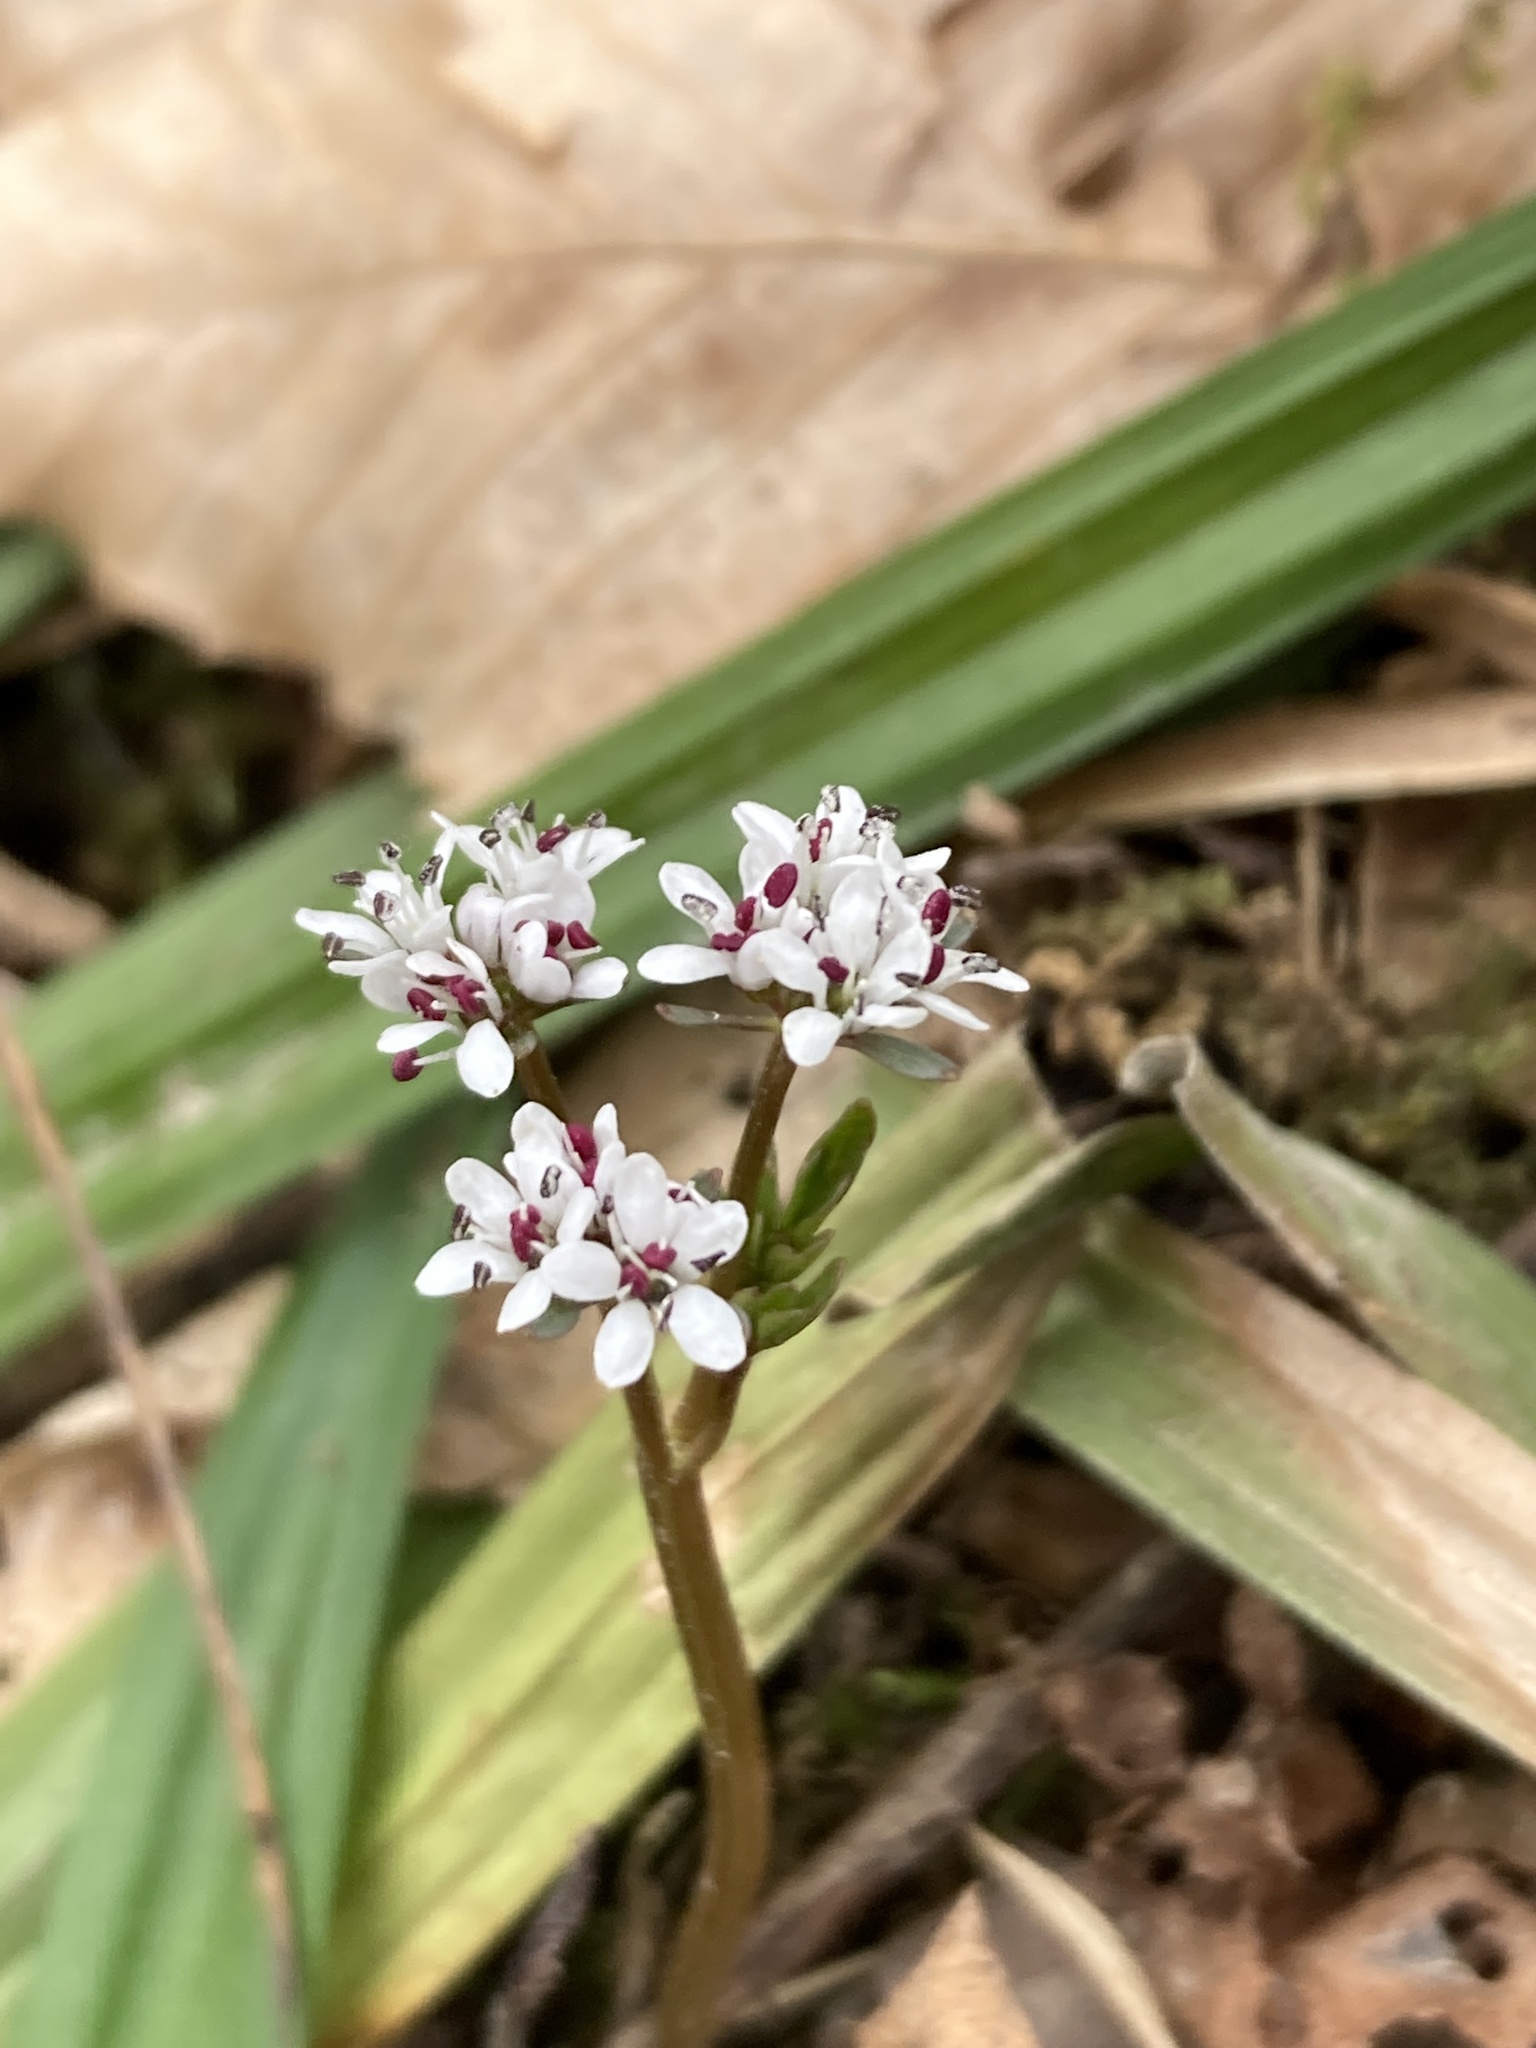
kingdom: Plantae
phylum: Tracheophyta
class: Magnoliopsida
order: Apiales
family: Apiaceae
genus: Erigenia
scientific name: Erigenia bulbosa
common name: Pepper-and-salt
